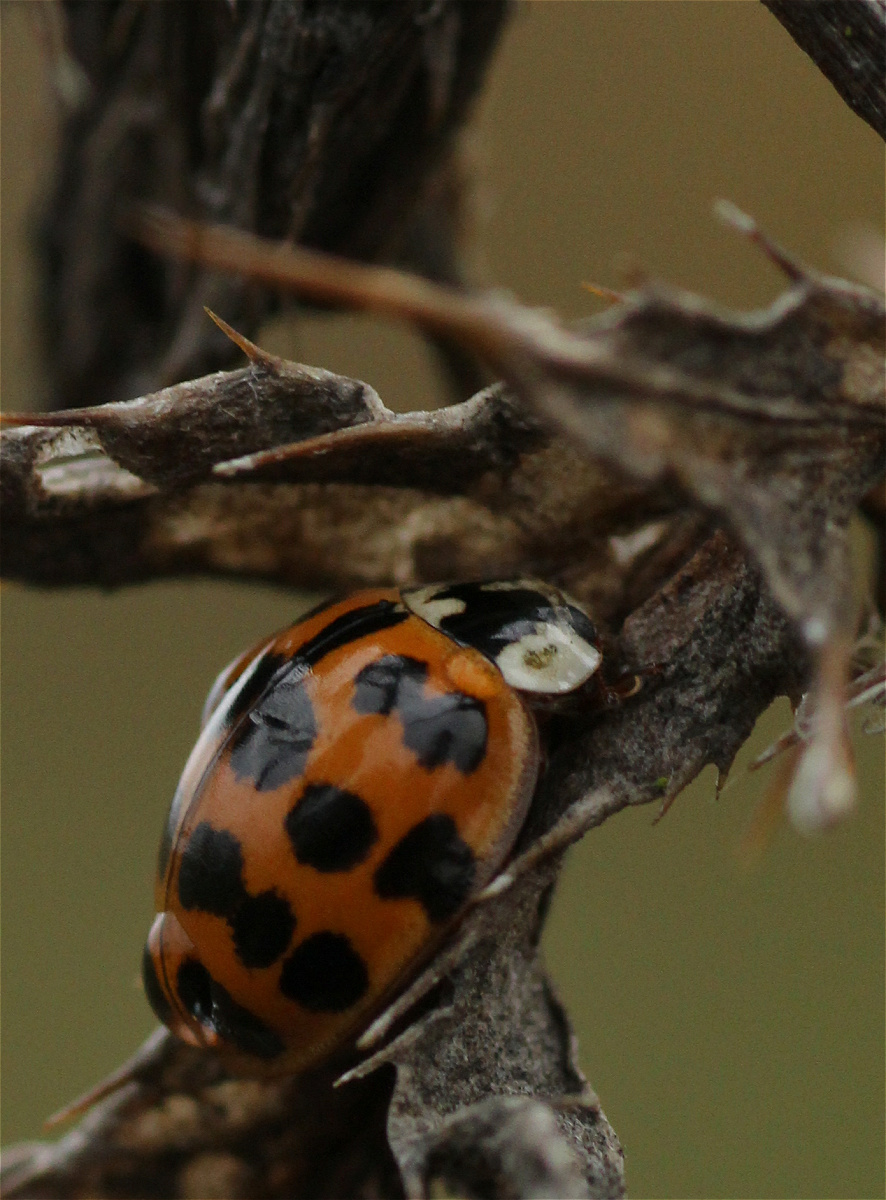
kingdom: Animalia
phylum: Arthropoda
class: Insecta
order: Coleoptera
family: Coccinellidae
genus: Harmonia
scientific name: Harmonia axyridis
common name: Harlequin ladybird
